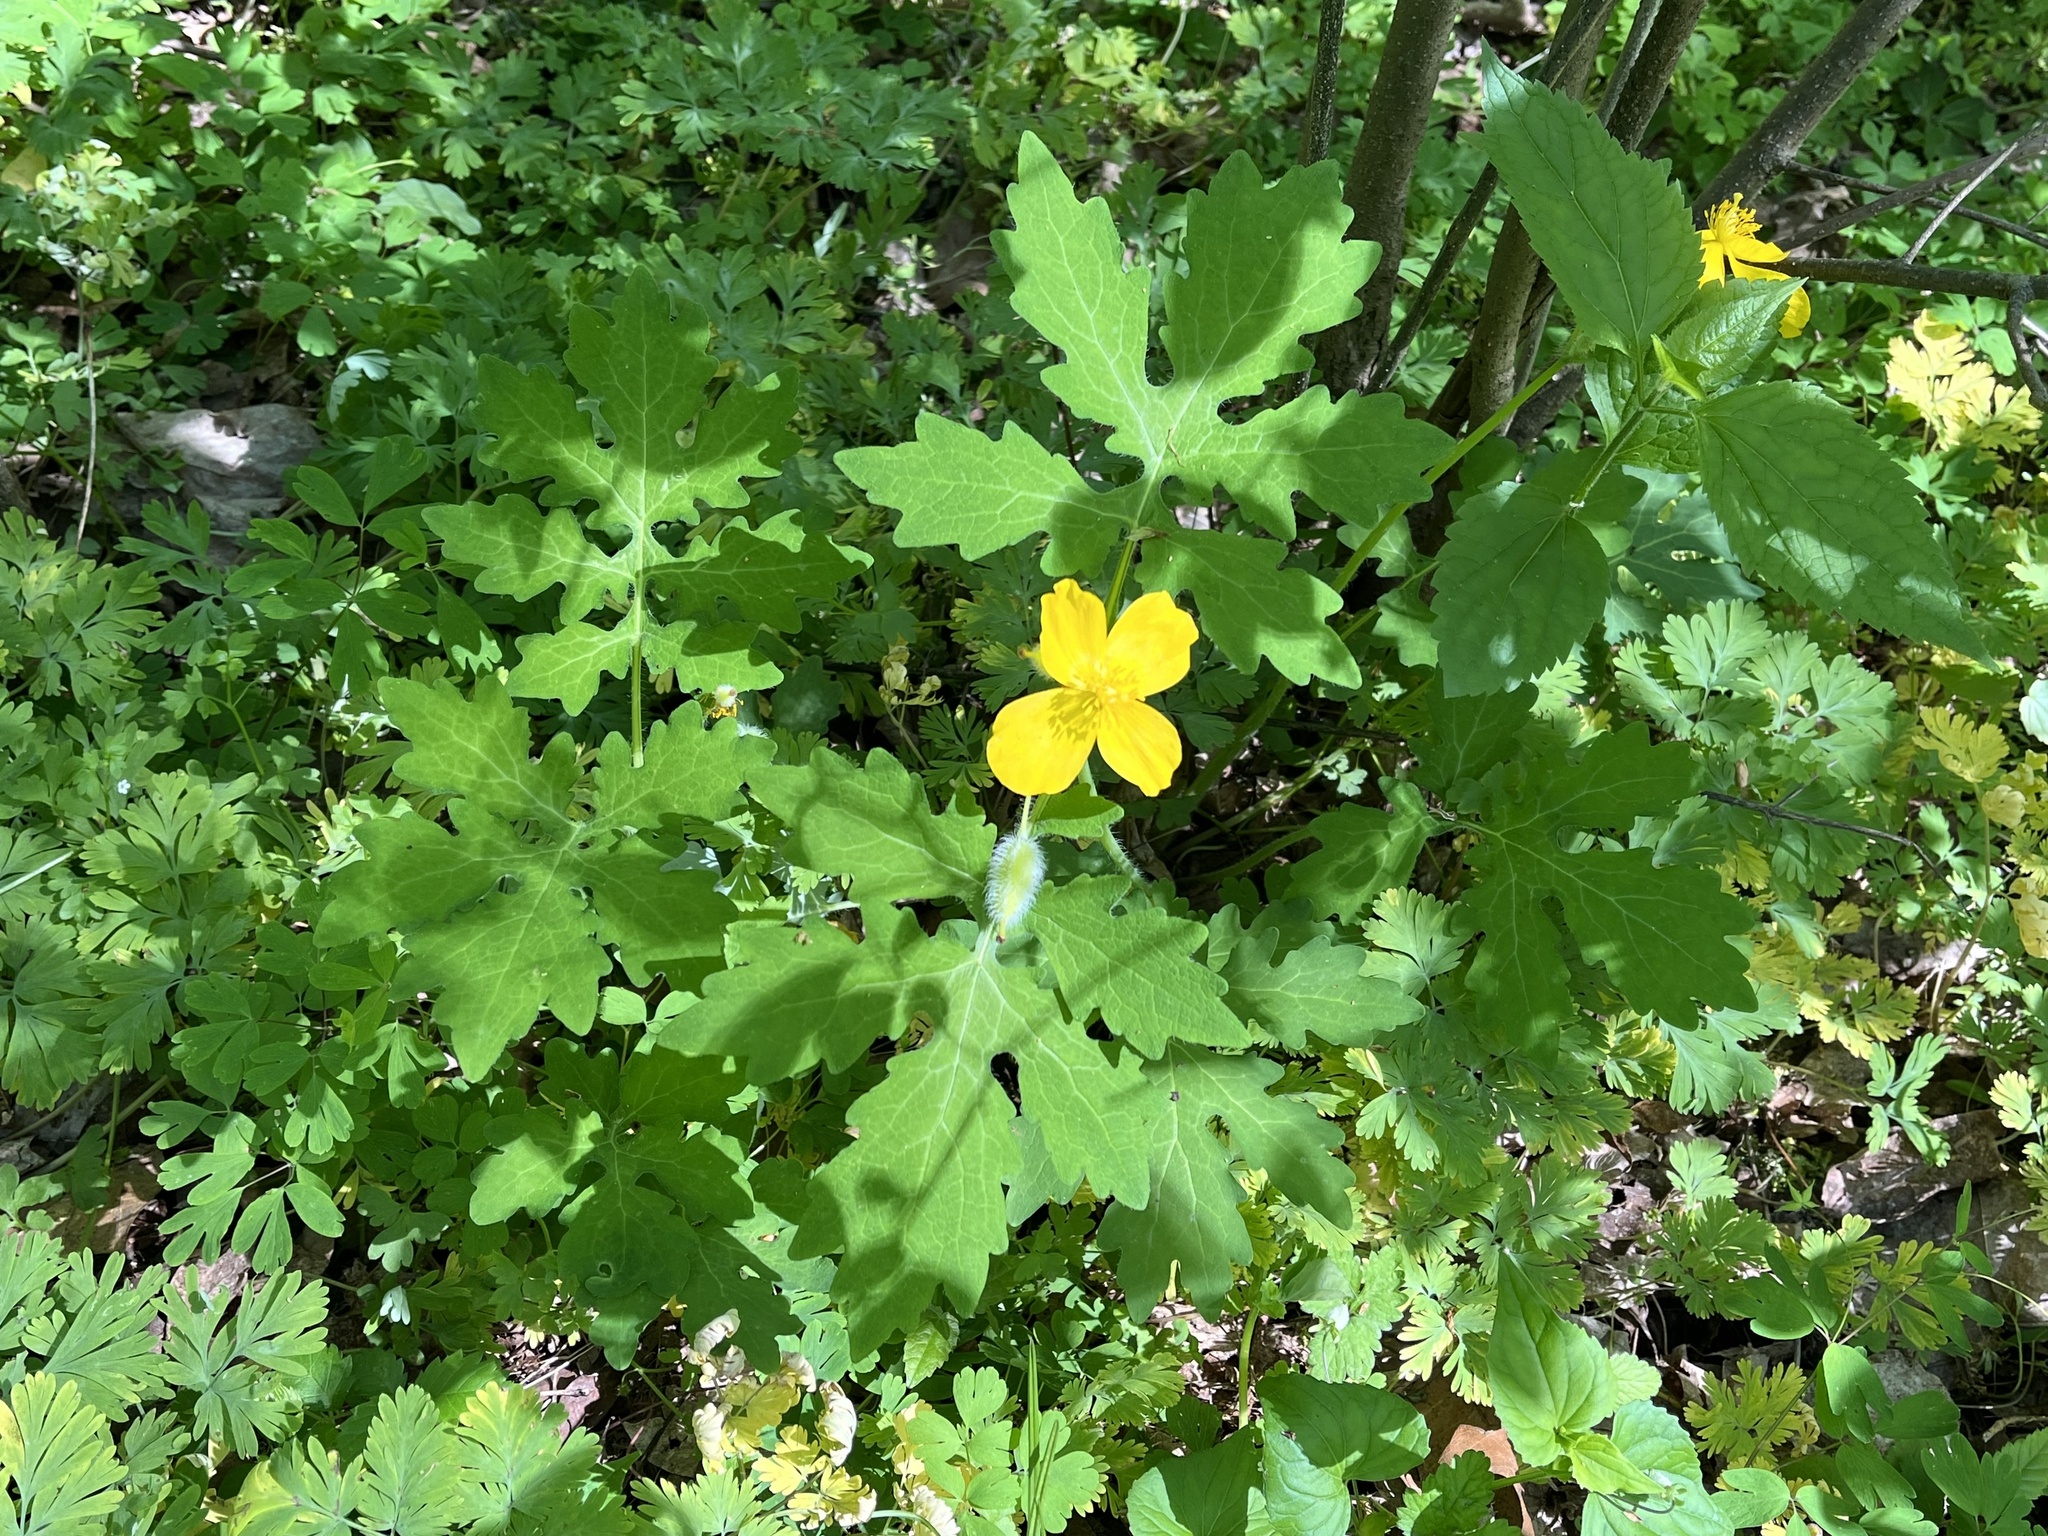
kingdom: Plantae
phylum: Tracheophyta
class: Magnoliopsida
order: Ranunculales
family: Papaveraceae
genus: Stylophorum
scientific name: Stylophorum diphyllum
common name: Celandine poppy
